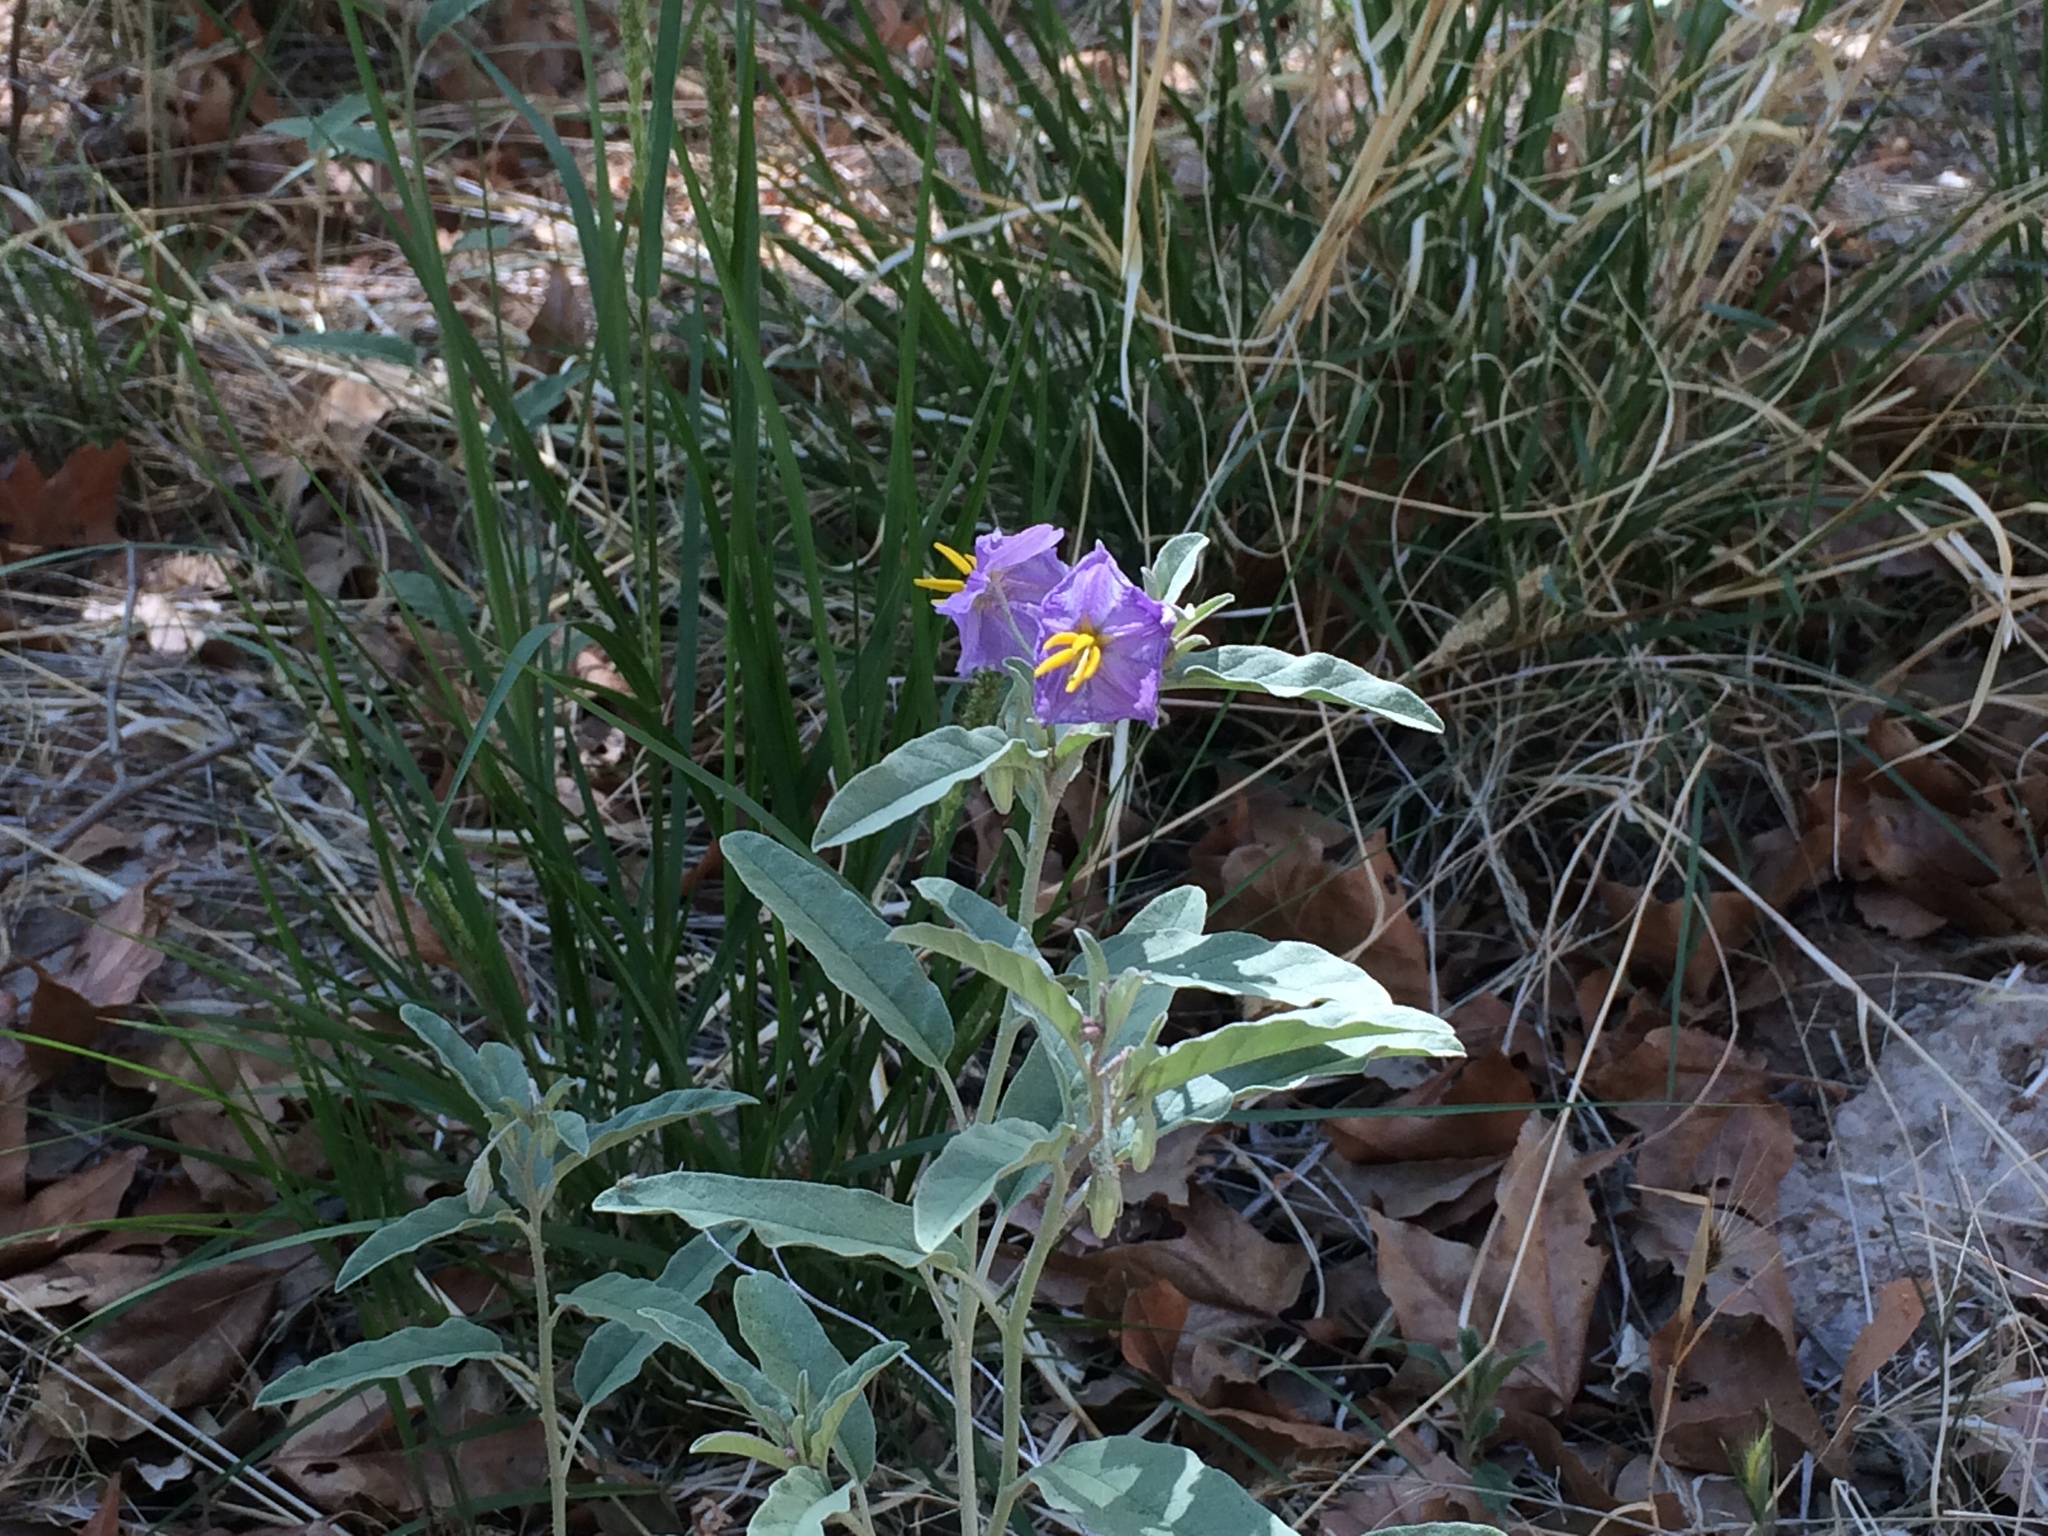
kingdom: Plantae
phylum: Tracheophyta
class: Magnoliopsida
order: Solanales
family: Solanaceae
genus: Solanum
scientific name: Solanum elaeagnifolium
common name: Silverleaf nightshade
